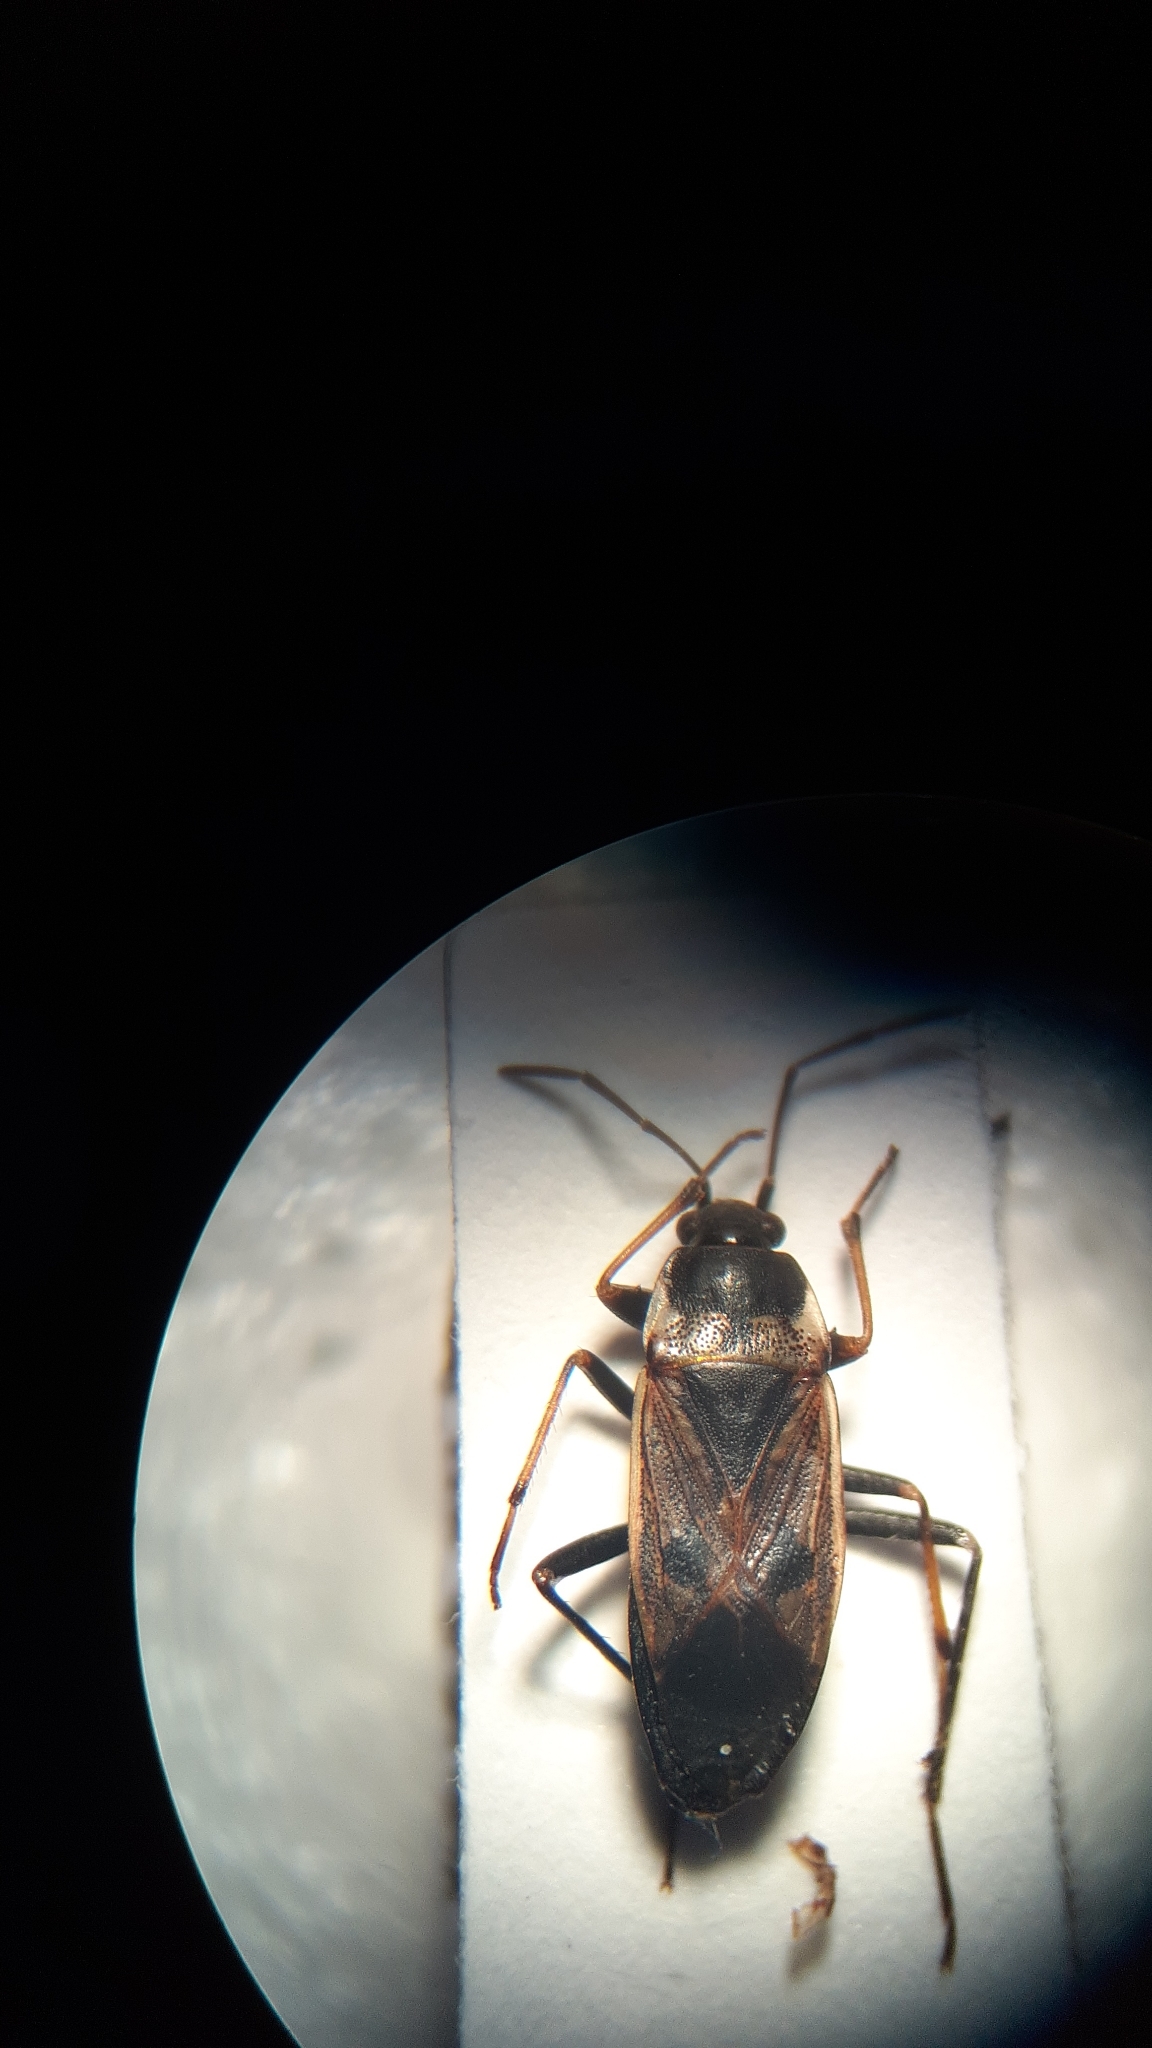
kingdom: Animalia
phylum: Arthropoda
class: Insecta
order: Hemiptera
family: Rhyparochromidae
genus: Rhyparochromus
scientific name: Rhyparochromus vulgaris
